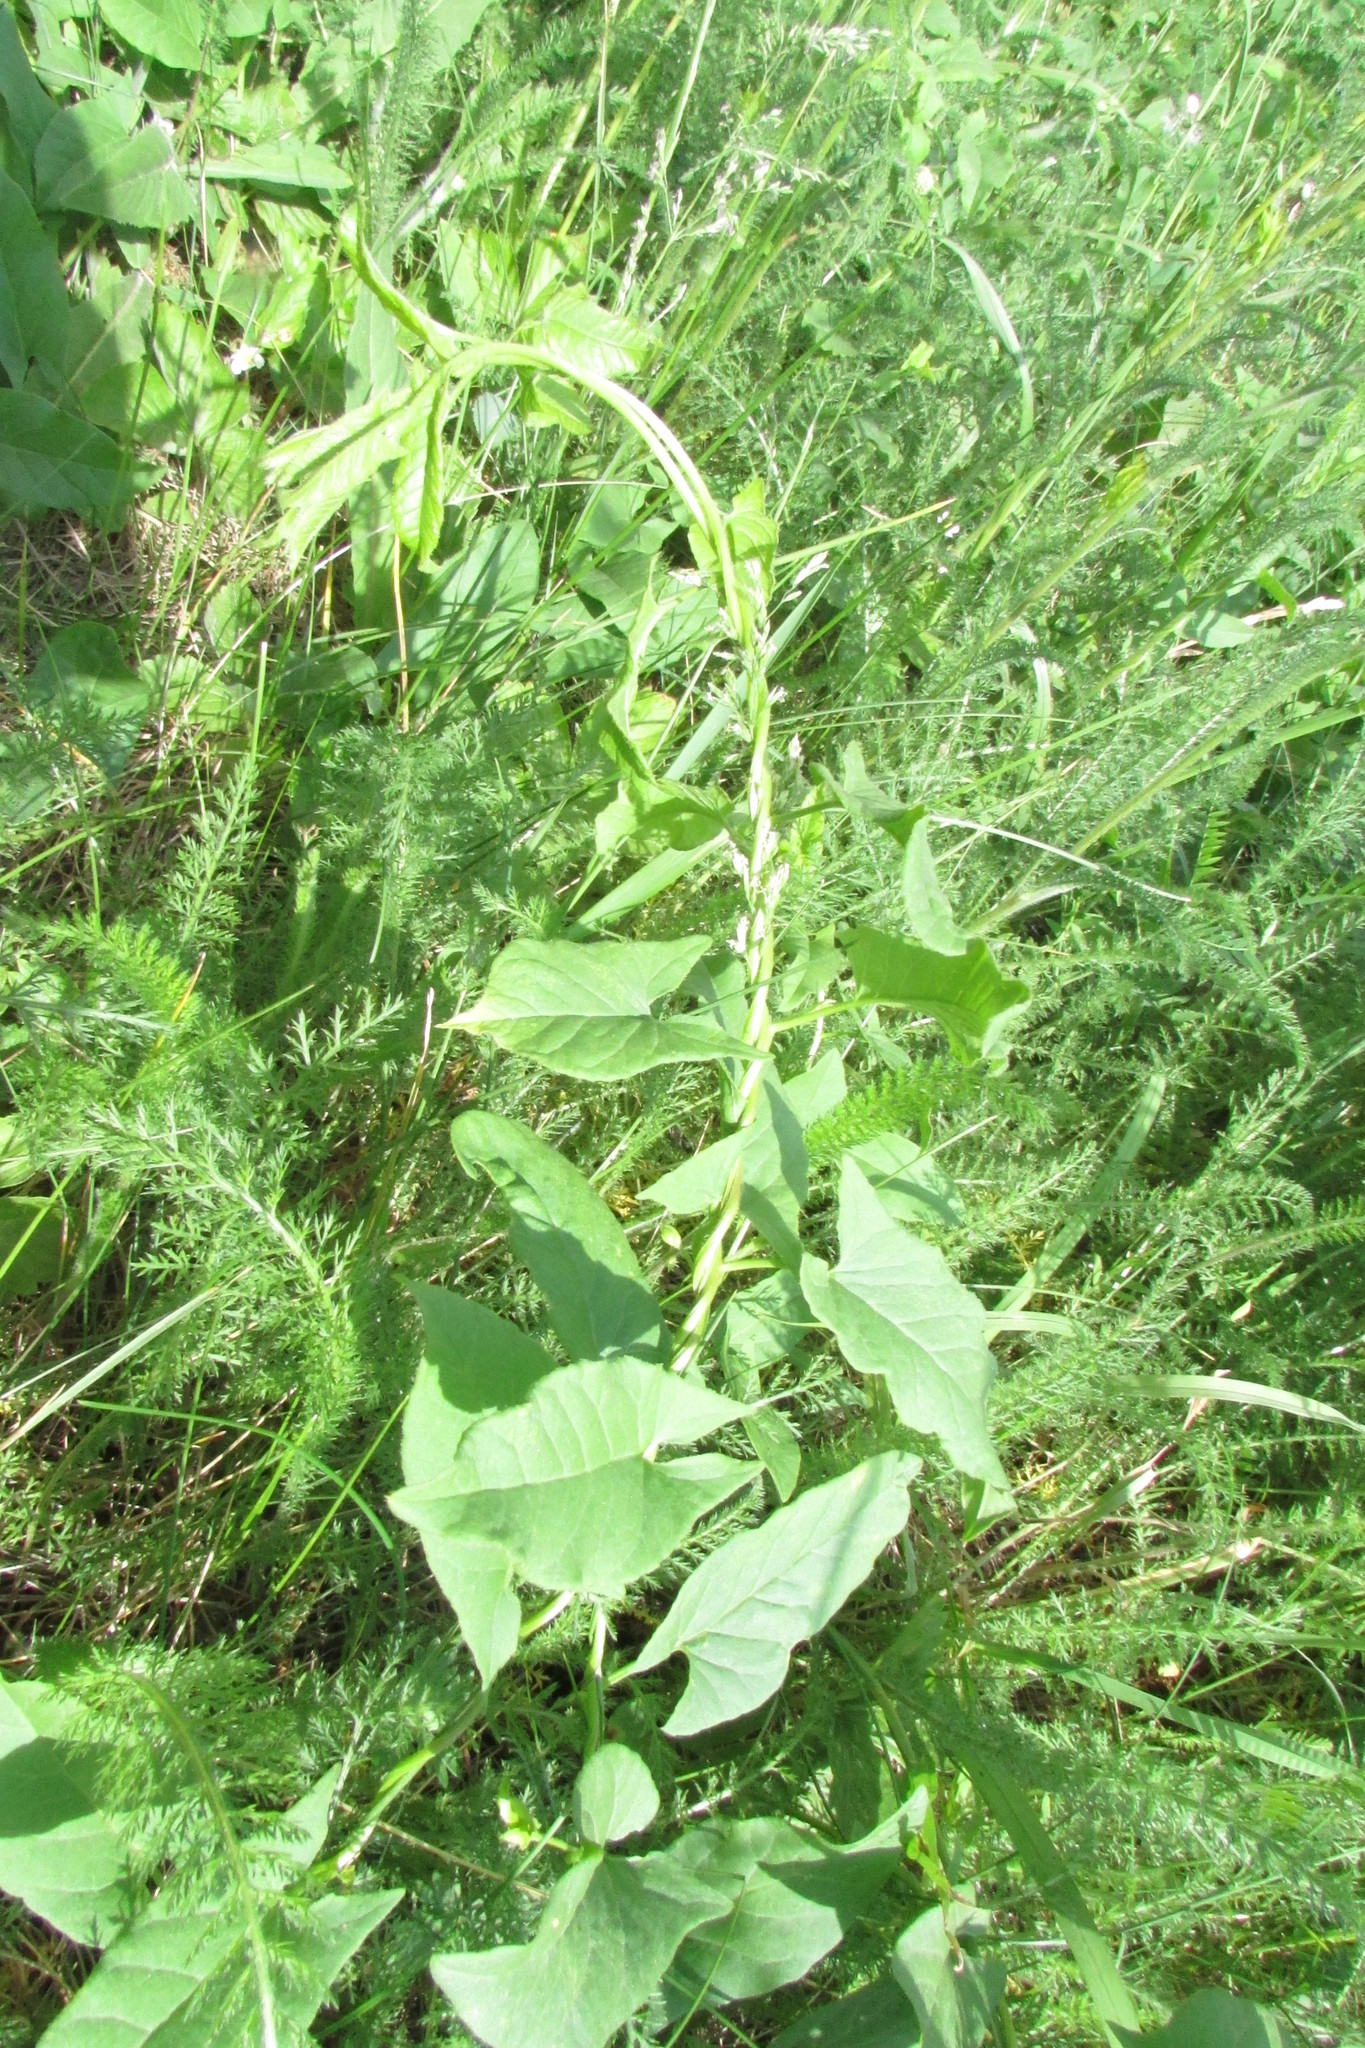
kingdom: Plantae
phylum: Tracheophyta
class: Magnoliopsida
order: Solanales
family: Convolvulaceae
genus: Convolvulus
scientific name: Convolvulus arvensis
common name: Field bindweed
